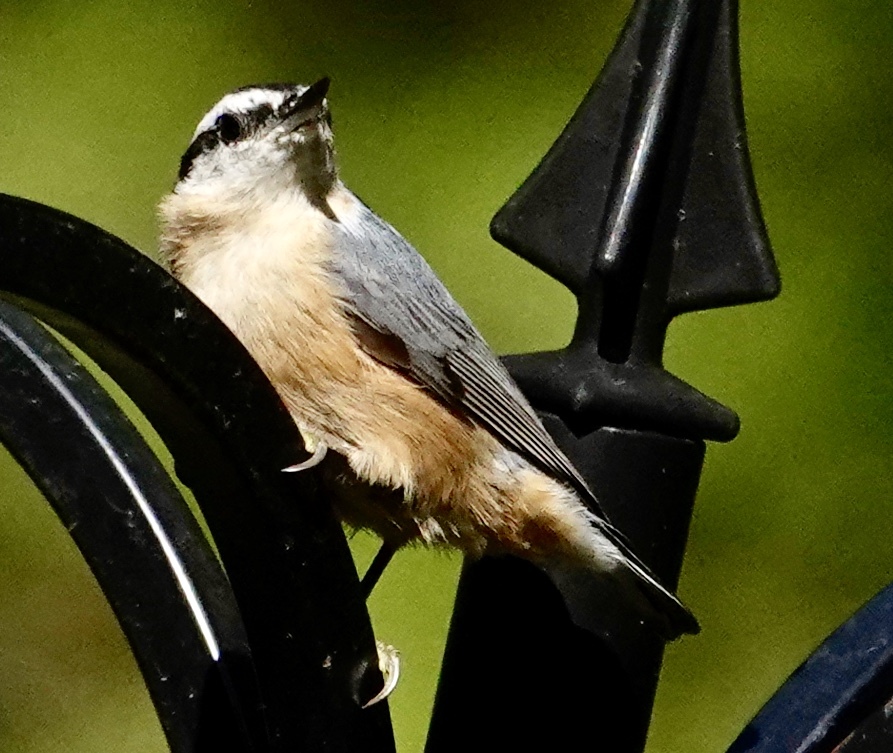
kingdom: Animalia
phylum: Chordata
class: Aves
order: Passeriformes
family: Sittidae
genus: Sitta
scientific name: Sitta canadensis
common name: Red-breasted nuthatch
